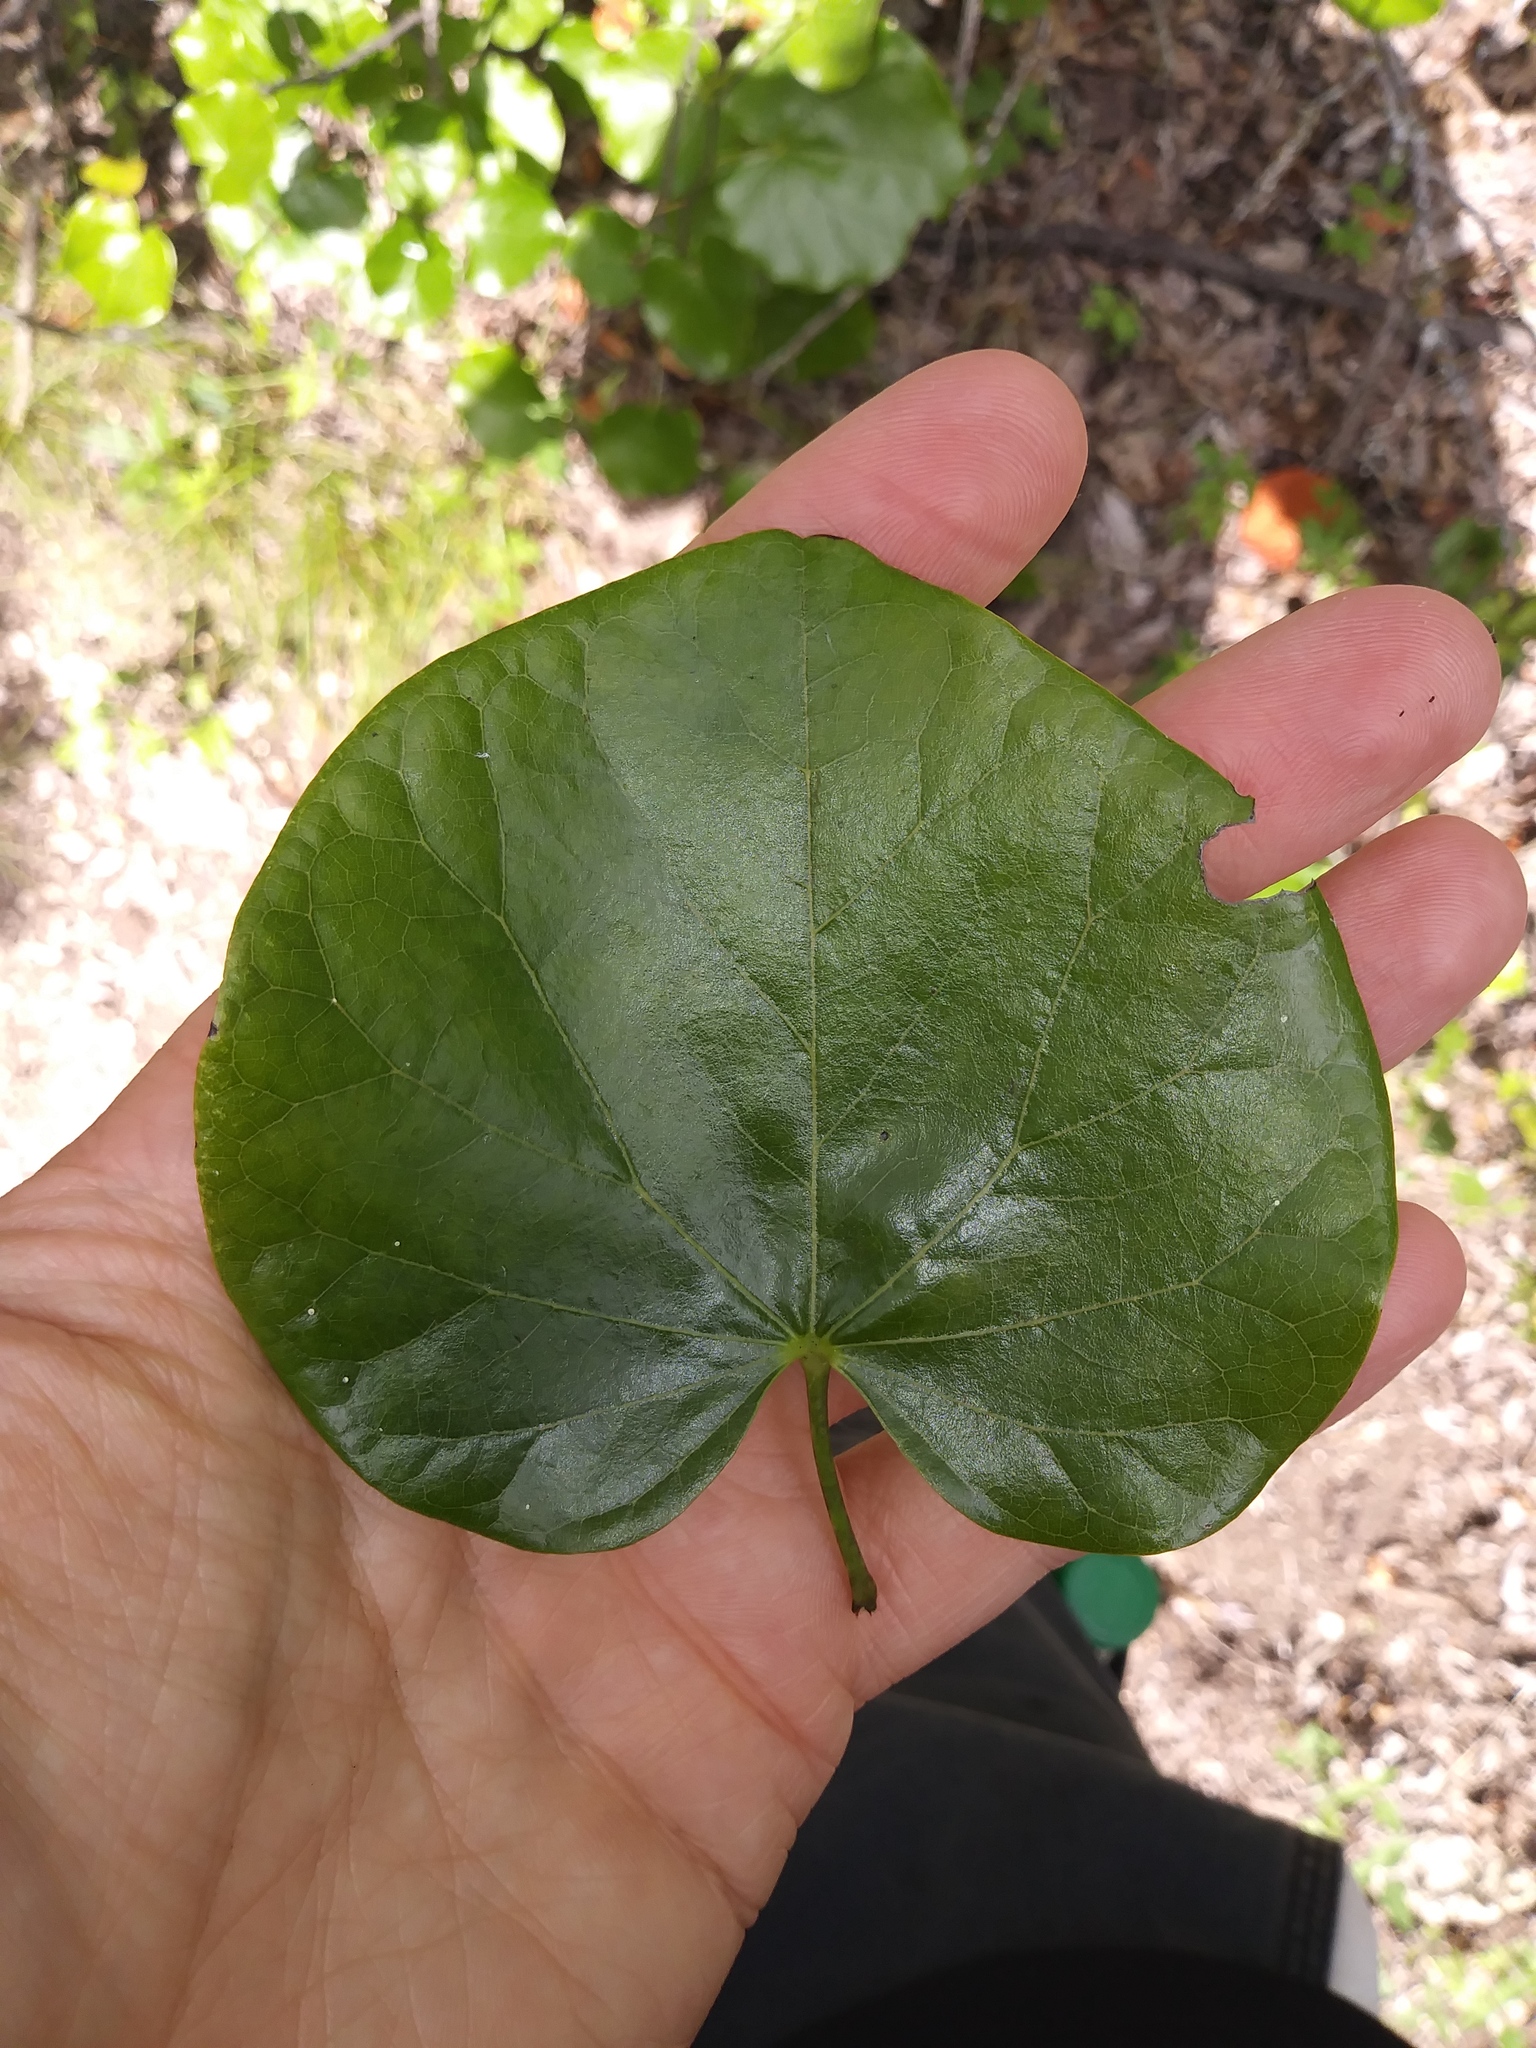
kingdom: Plantae
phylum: Tracheophyta
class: Magnoliopsida
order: Fabales
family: Fabaceae
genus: Cercis
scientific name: Cercis canadensis
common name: Eastern redbud
